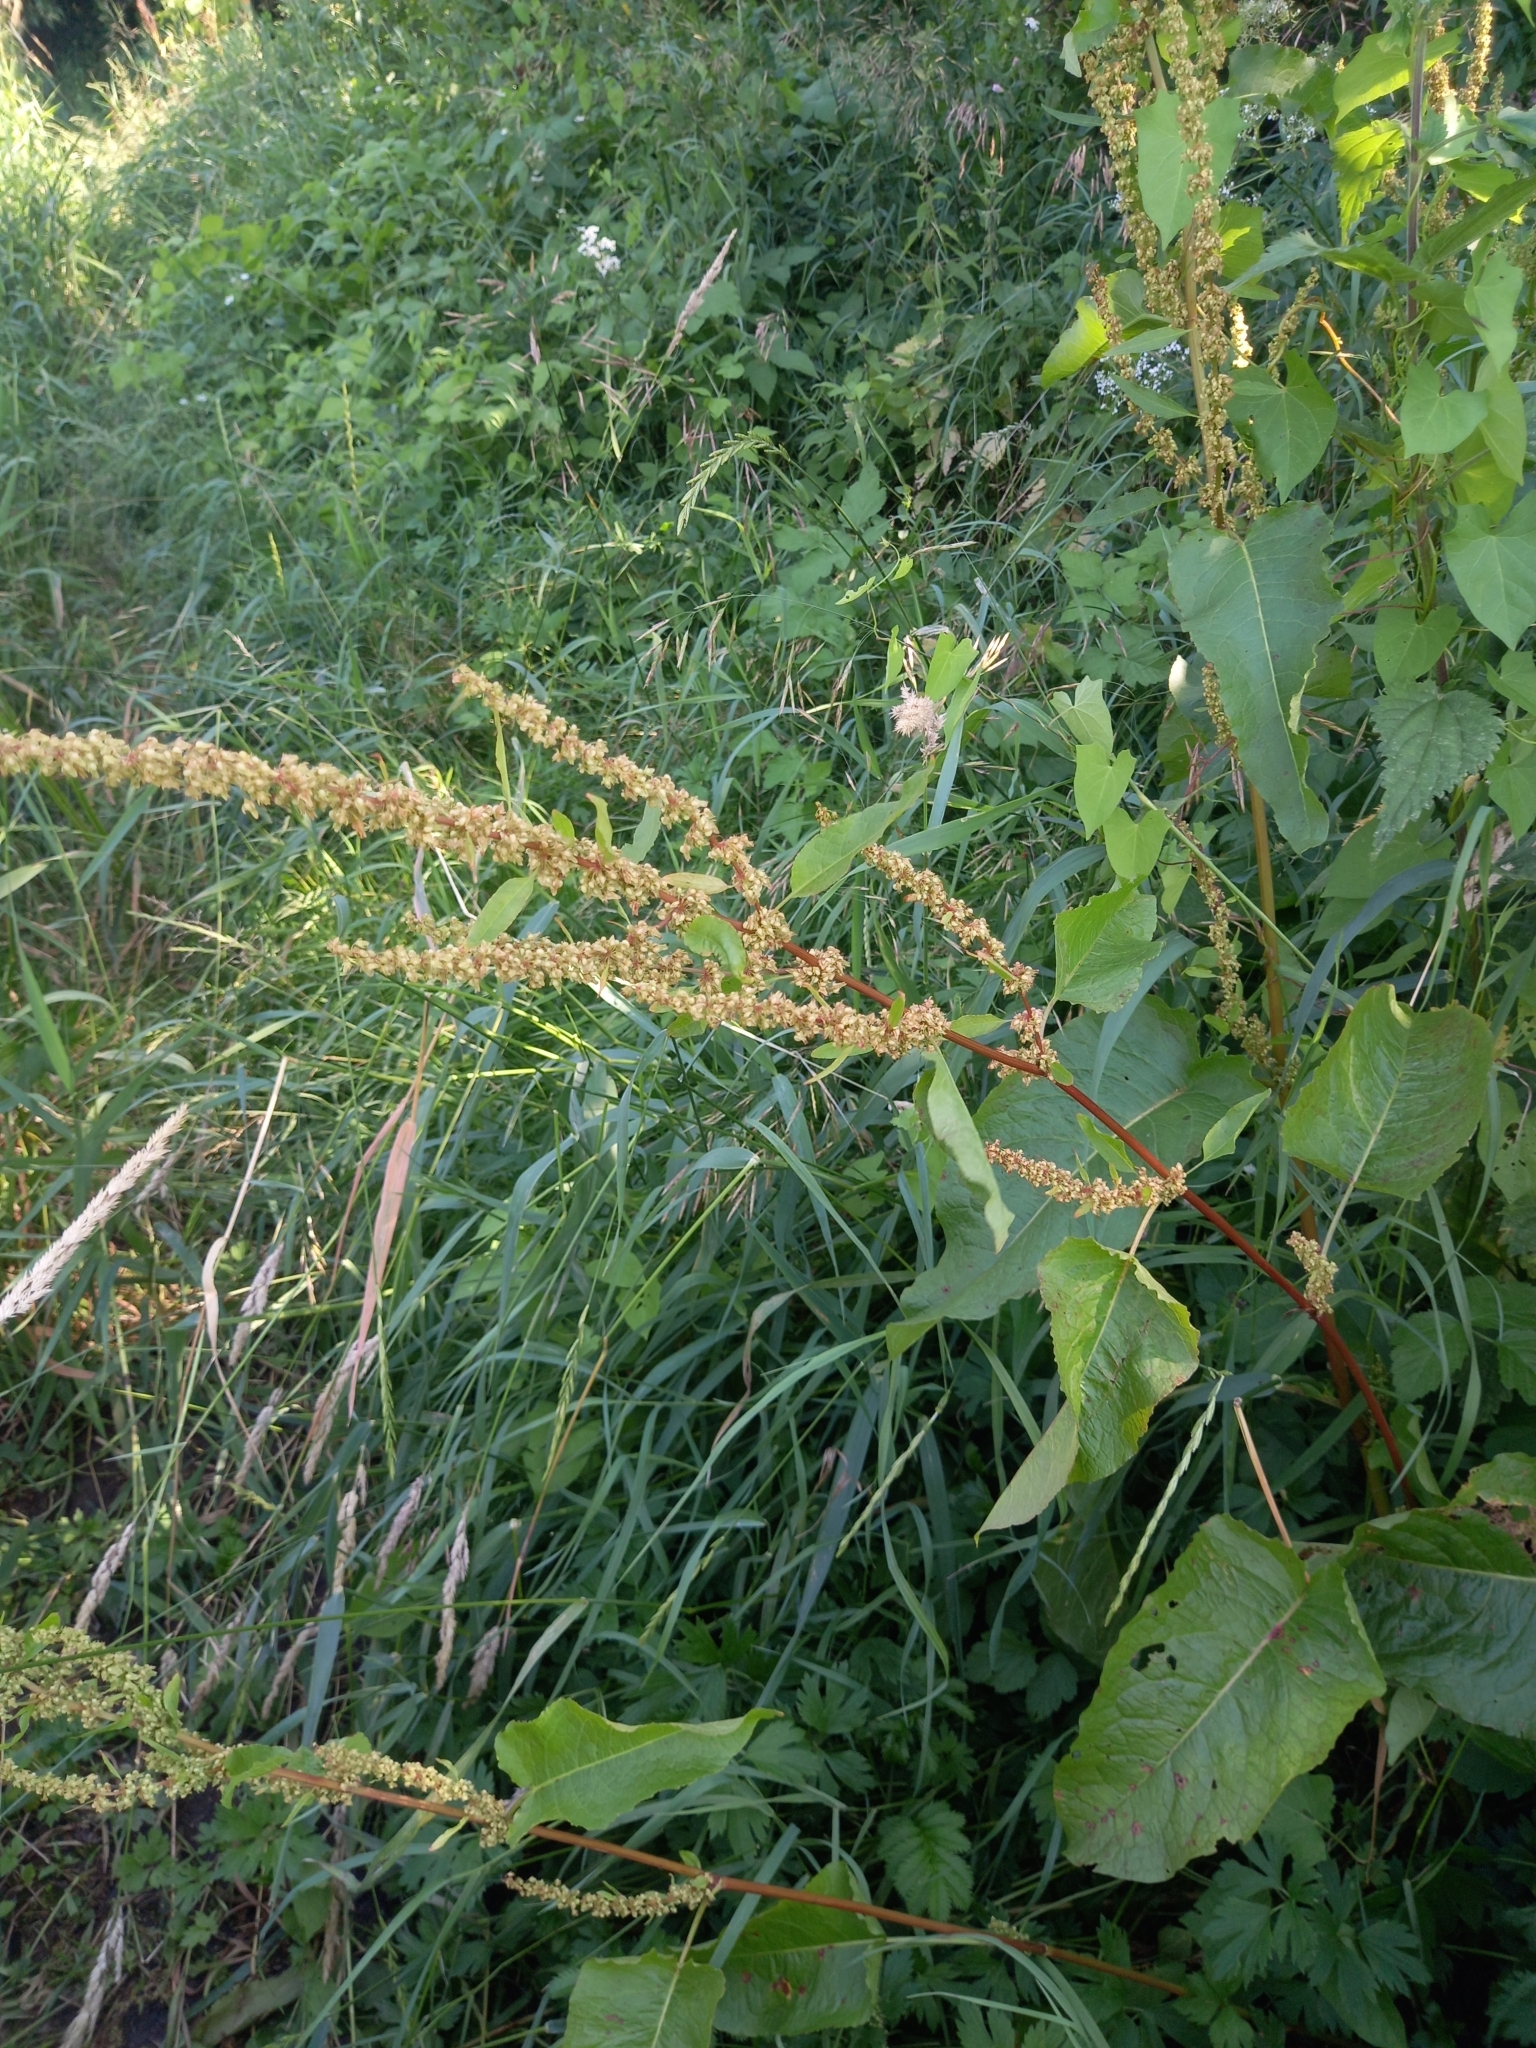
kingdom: Plantae
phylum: Tracheophyta
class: Magnoliopsida
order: Caryophyllales
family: Polygonaceae
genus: Rumex
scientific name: Rumex obtusifolius
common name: Bitter dock
